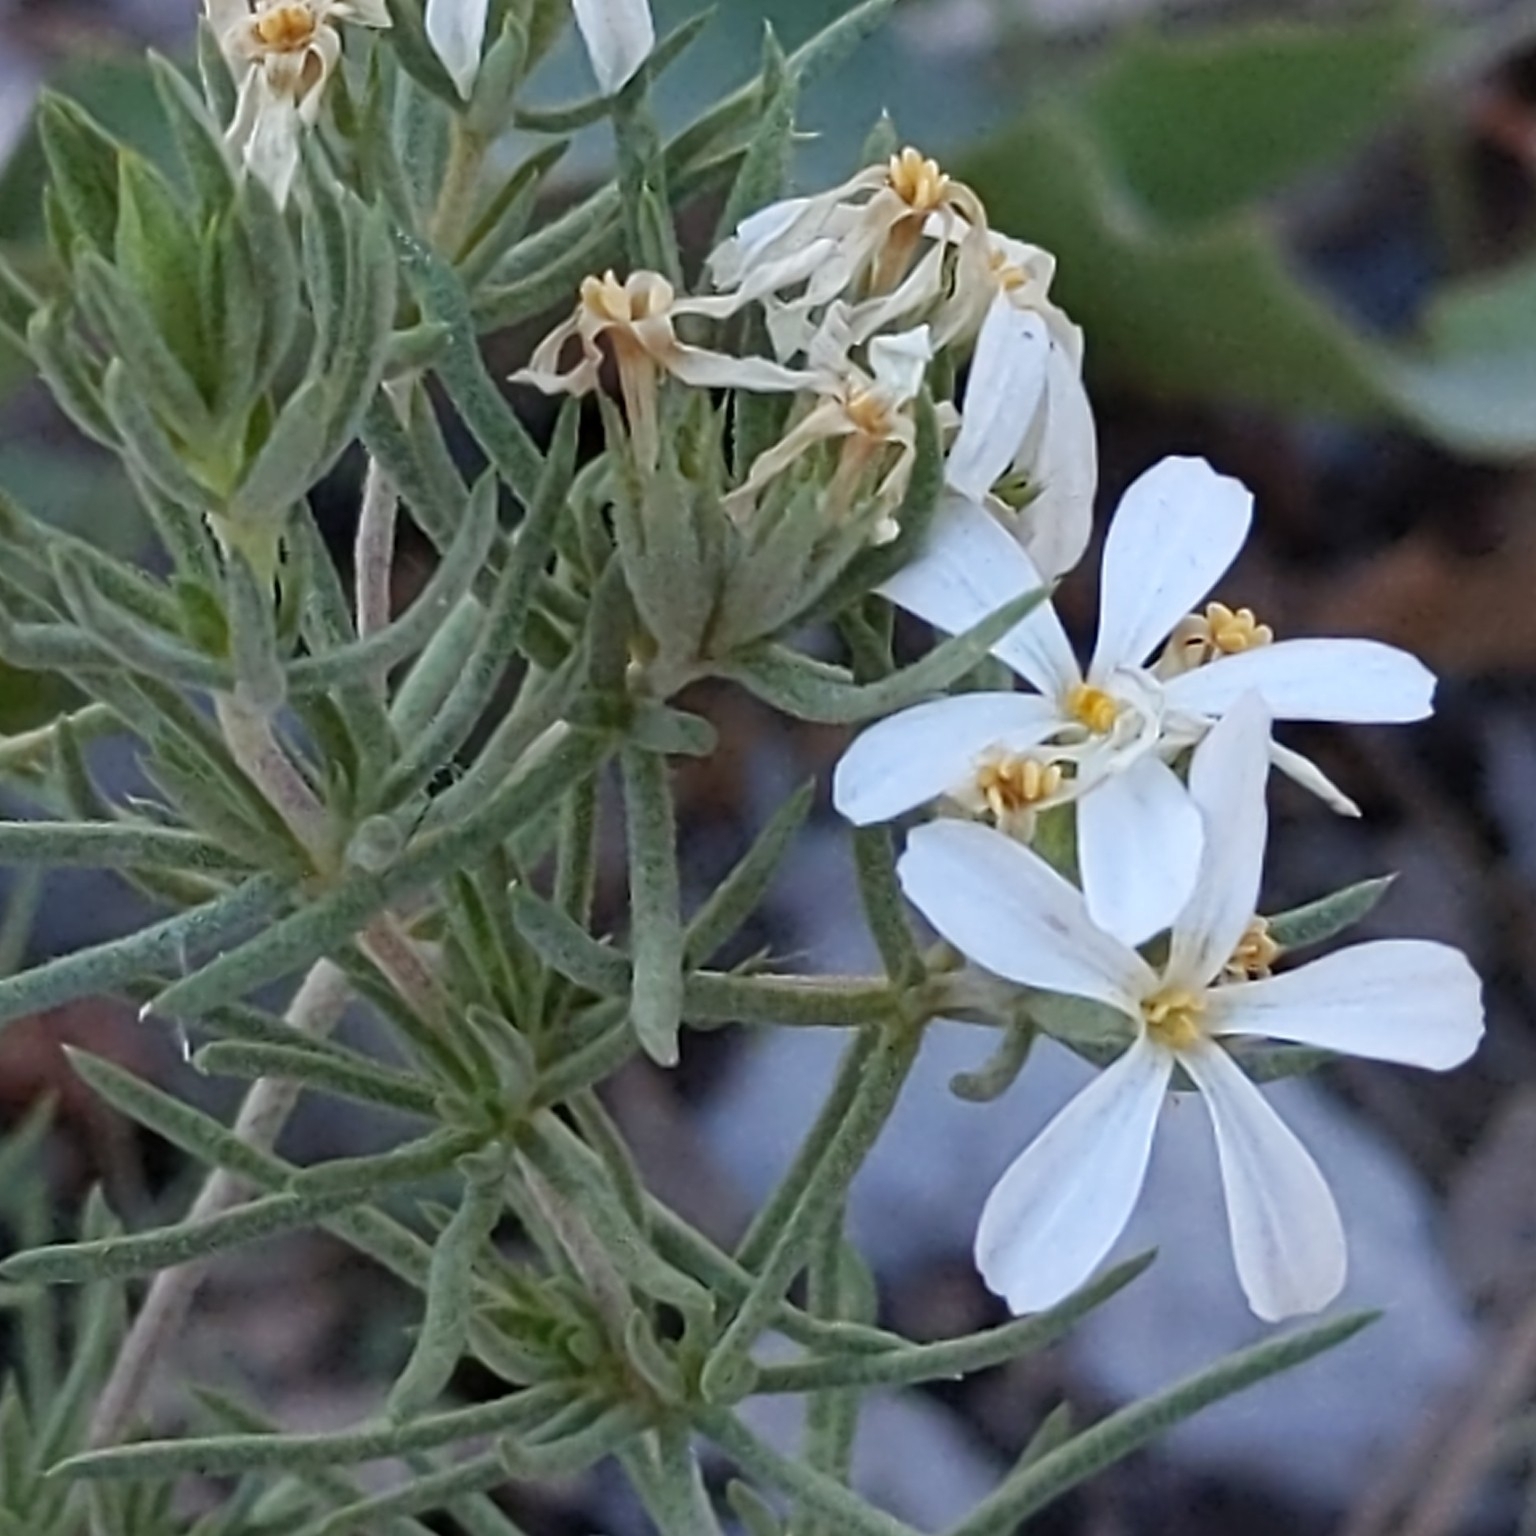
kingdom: Plantae
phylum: Tracheophyta
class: Magnoliopsida
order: Ericales
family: Polemoniaceae
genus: Leptosiphon
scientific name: Leptosiphon nuttallii
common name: Nuttall's linanthus
